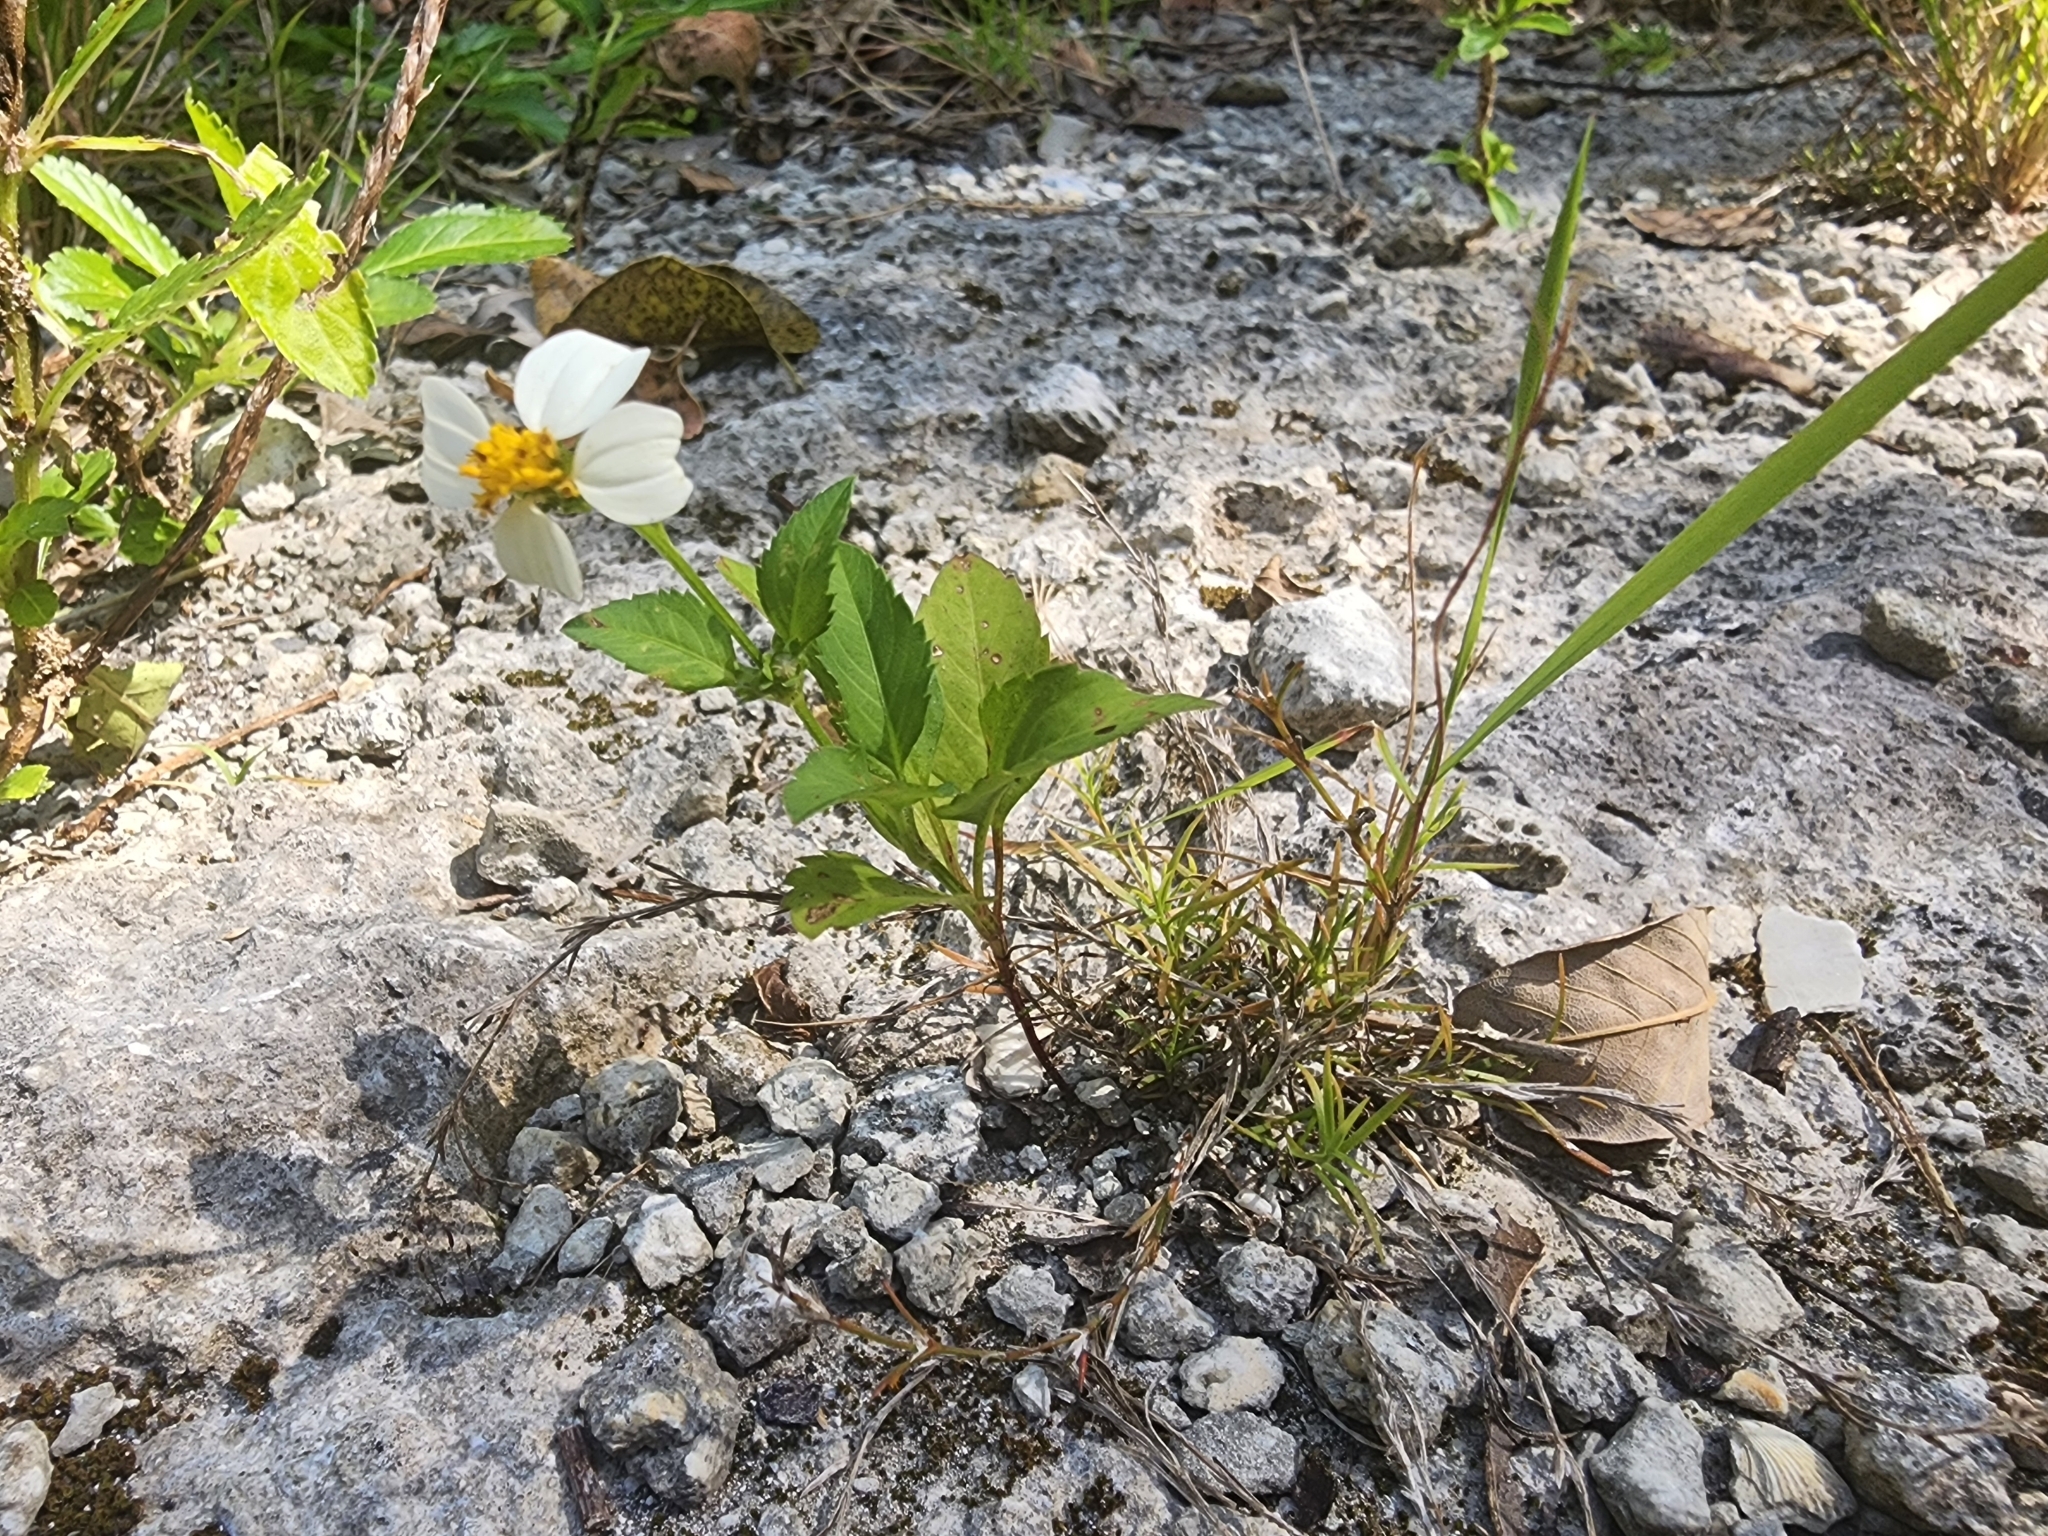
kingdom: Plantae
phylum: Tracheophyta
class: Magnoliopsida
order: Asterales
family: Asteraceae
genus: Bidens
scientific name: Bidens alba
